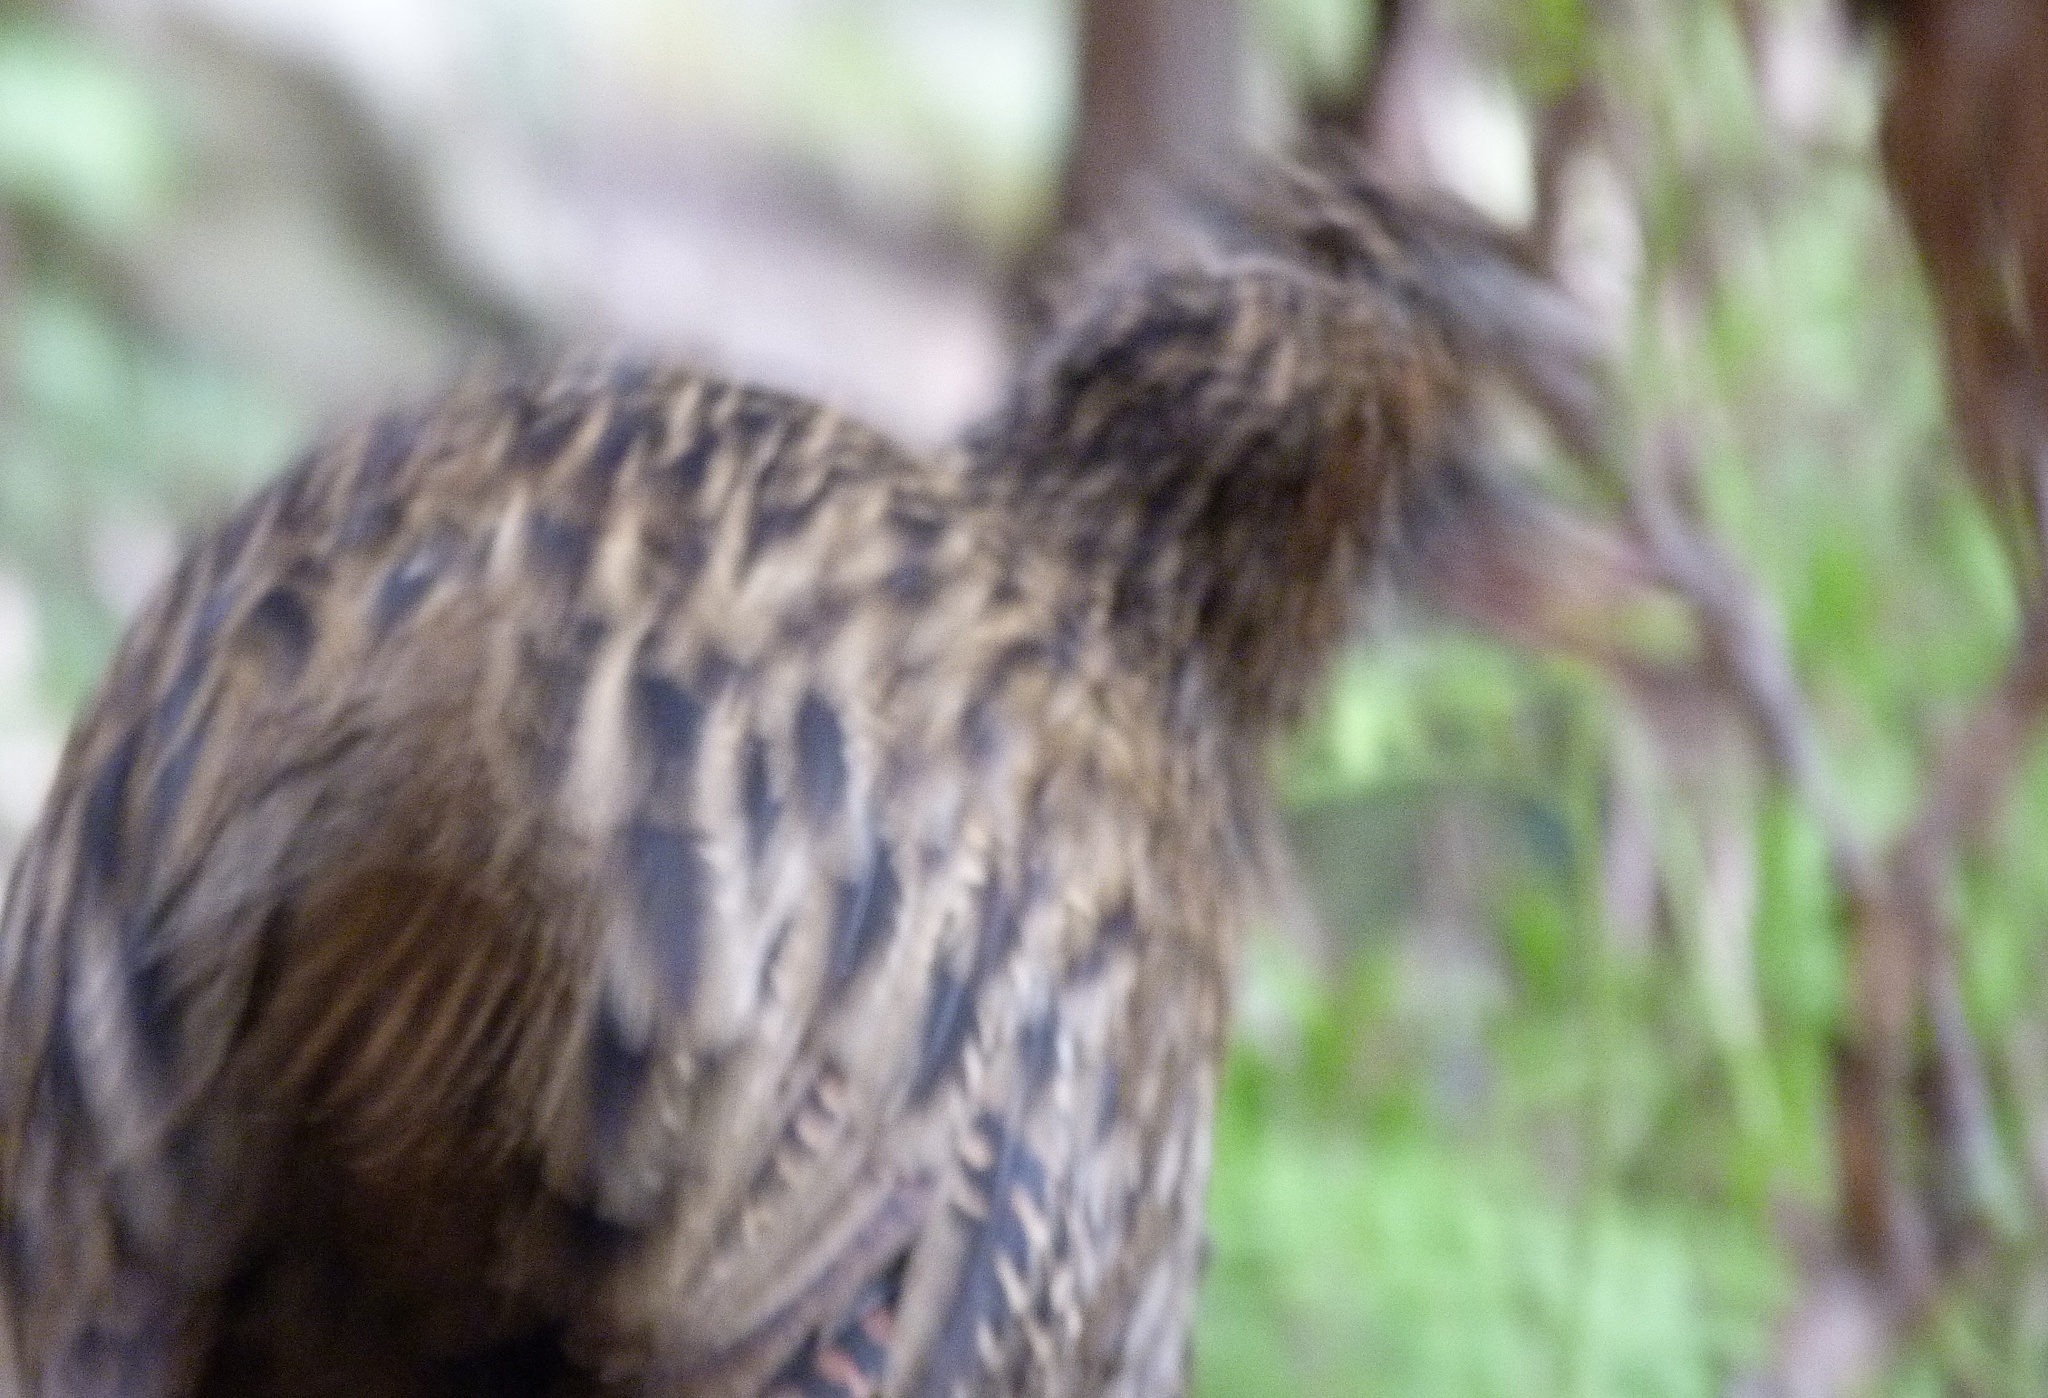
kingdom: Animalia
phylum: Chordata
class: Aves
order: Gruiformes
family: Rallidae
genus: Gallirallus
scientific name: Gallirallus australis
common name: Weka
